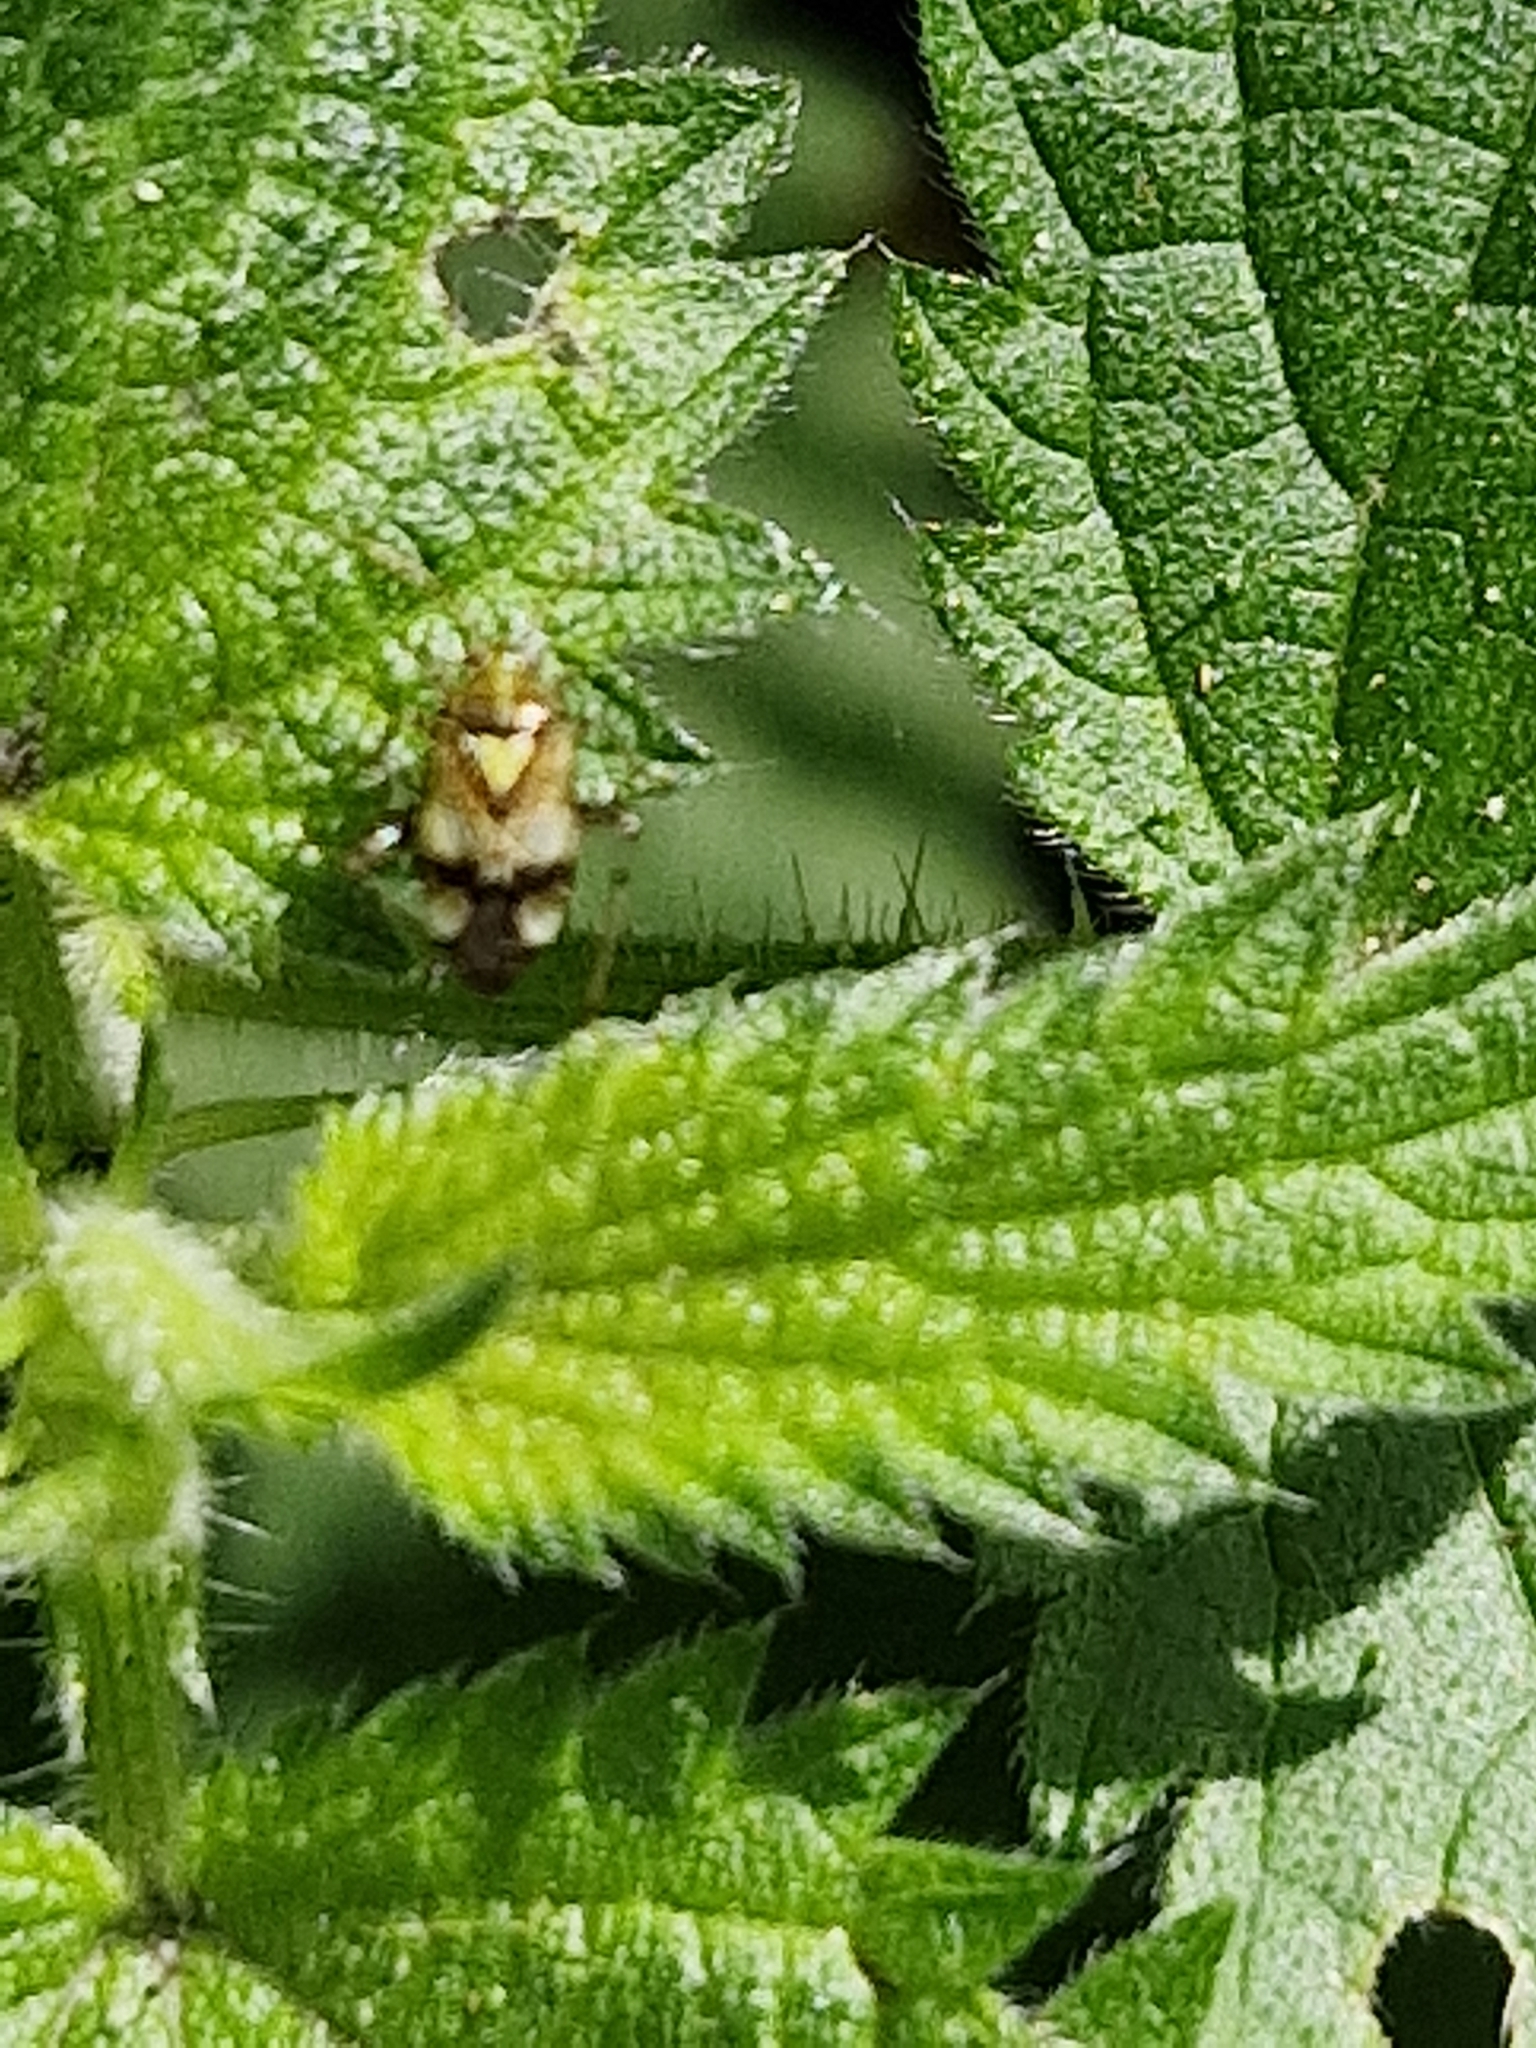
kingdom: Animalia
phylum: Arthropoda
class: Insecta
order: Hemiptera
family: Miridae
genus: Liocoris
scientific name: Liocoris tripustulatus
